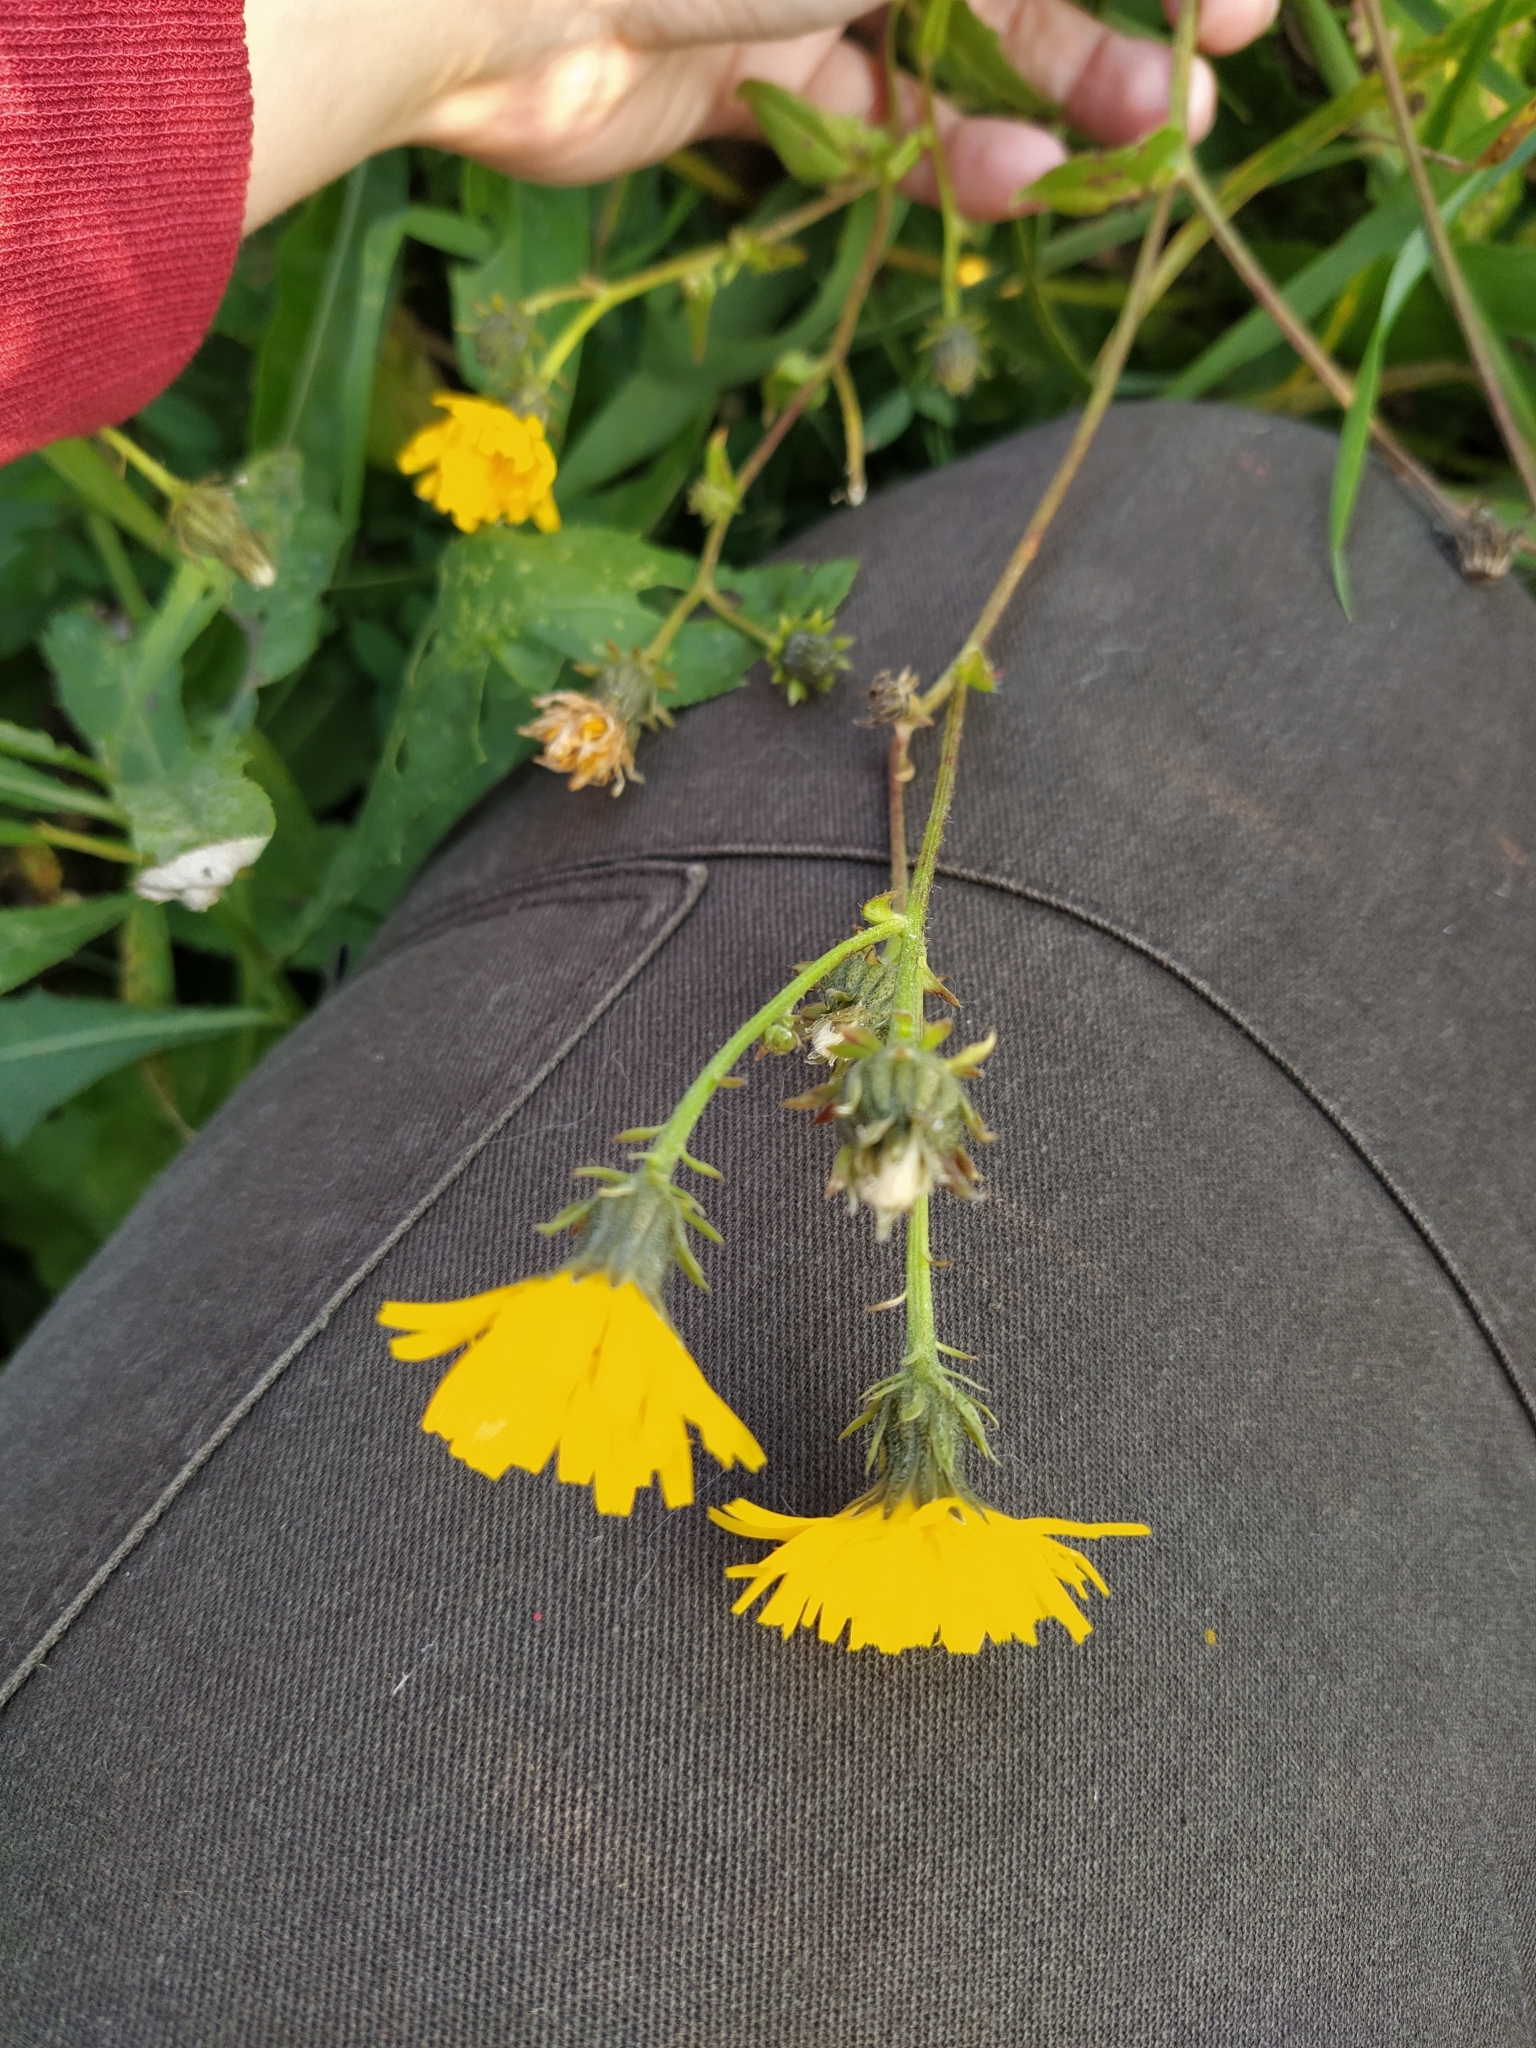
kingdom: Plantae
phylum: Tracheophyta
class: Magnoliopsida
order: Asterales
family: Asteraceae
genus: Picris
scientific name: Picris hieracioides
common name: Hawkweed oxtongue
